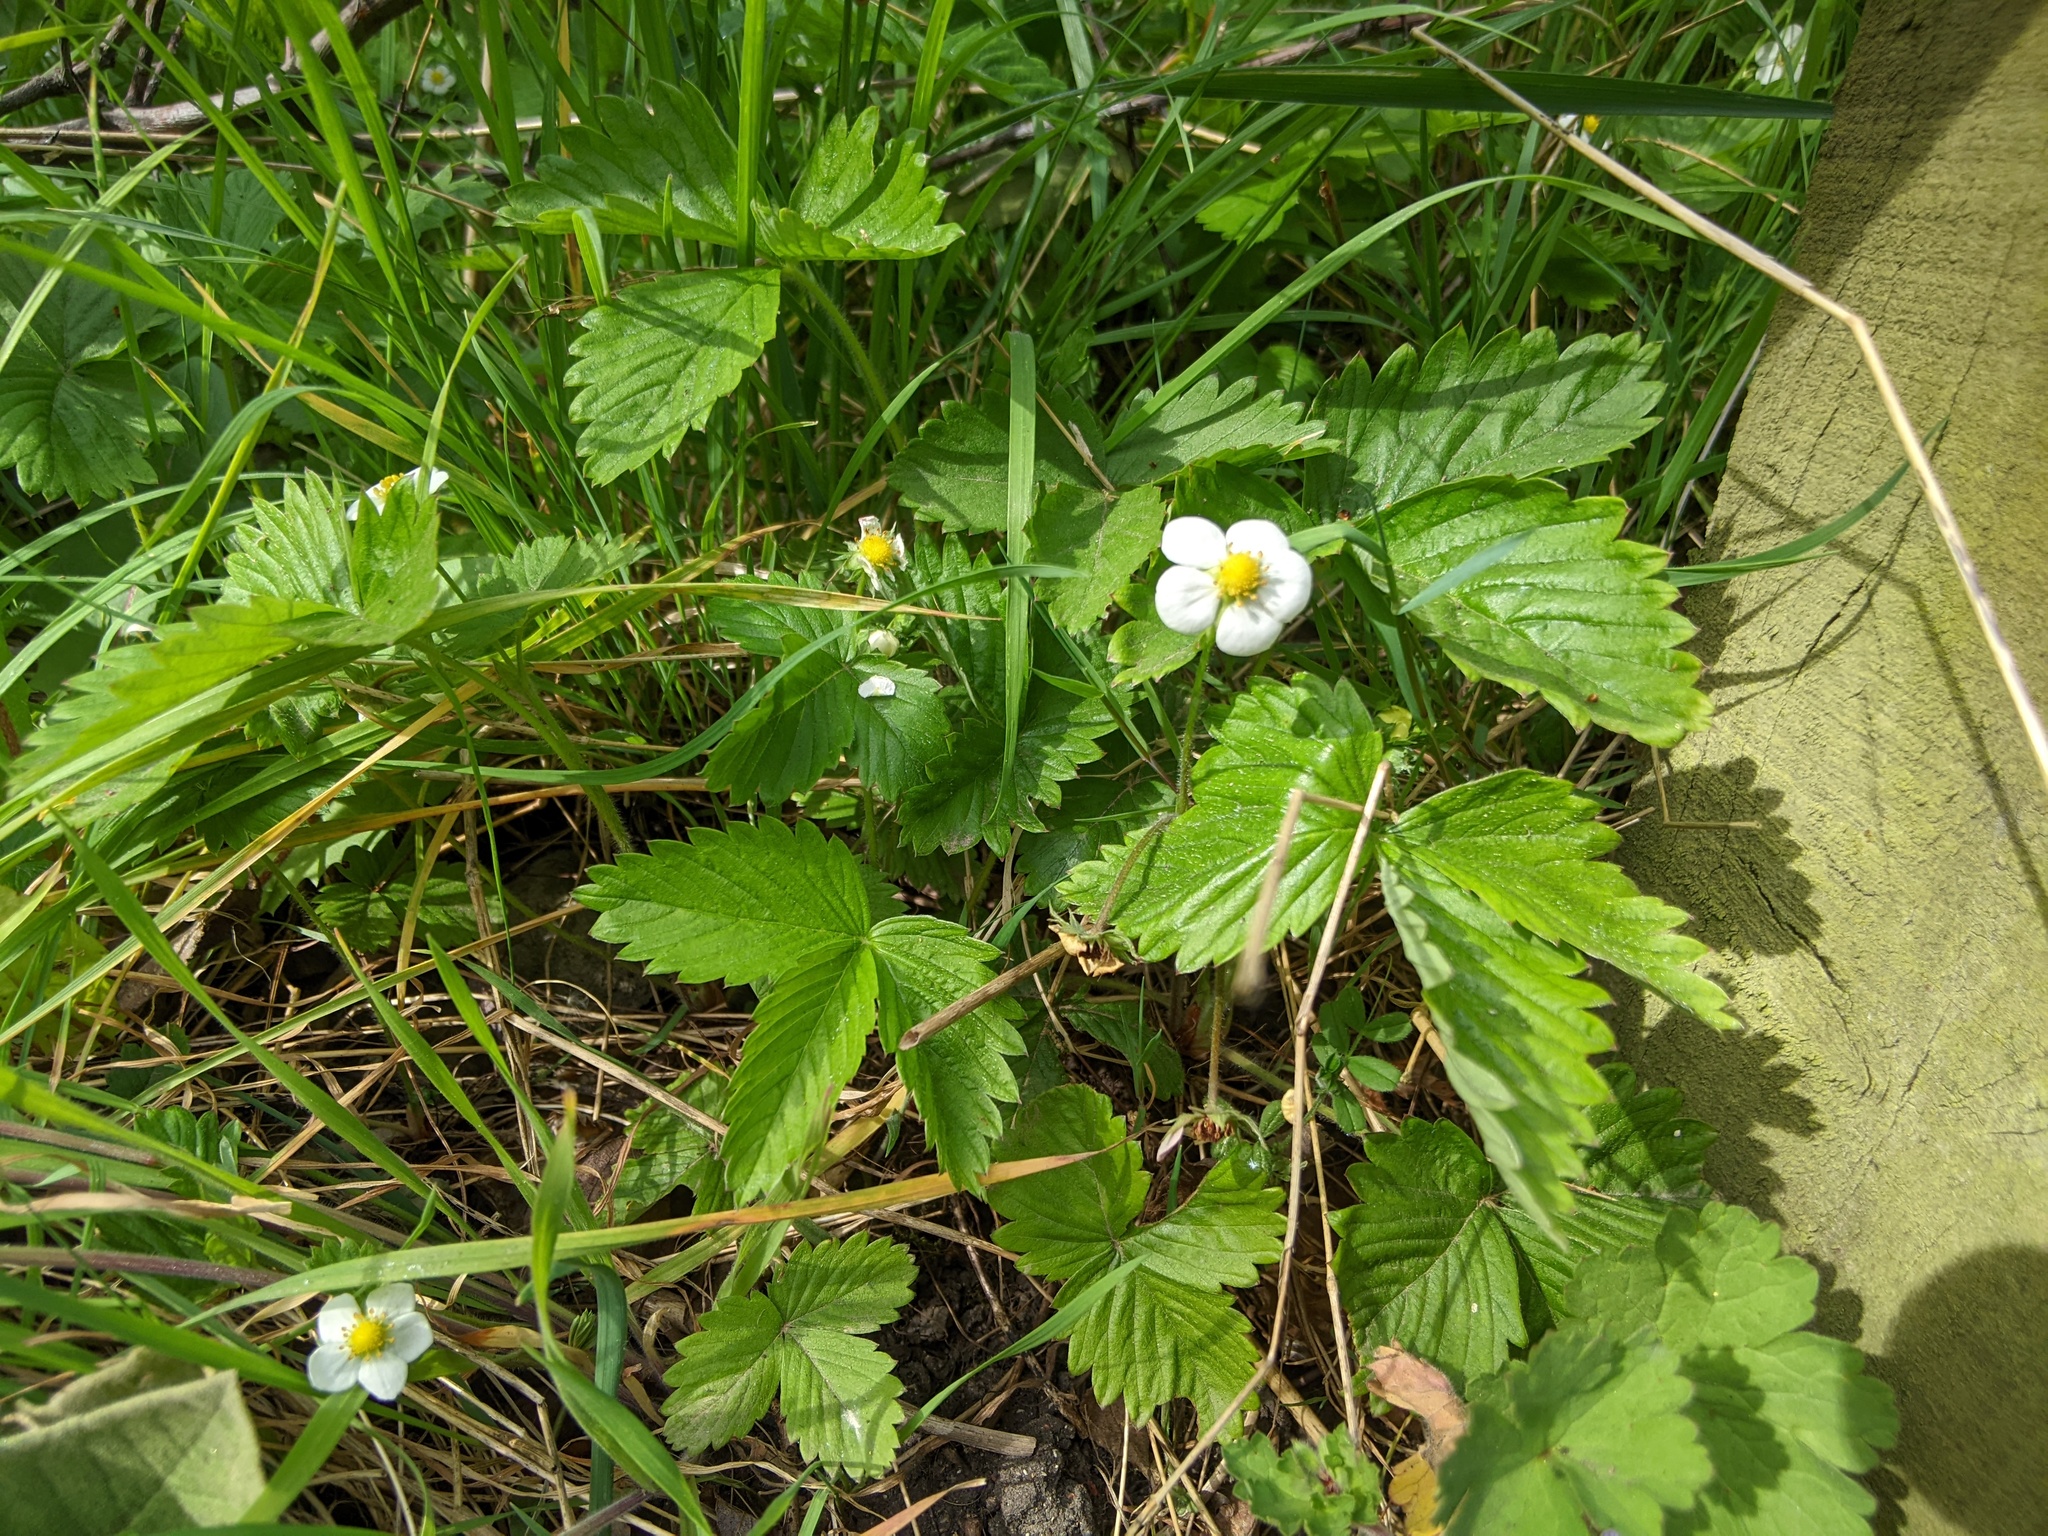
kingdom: Plantae
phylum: Tracheophyta
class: Magnoliopsida
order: Rosales
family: Rosaceae
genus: Fragaria
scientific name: Fragaria vesca
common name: Wild strawberry
